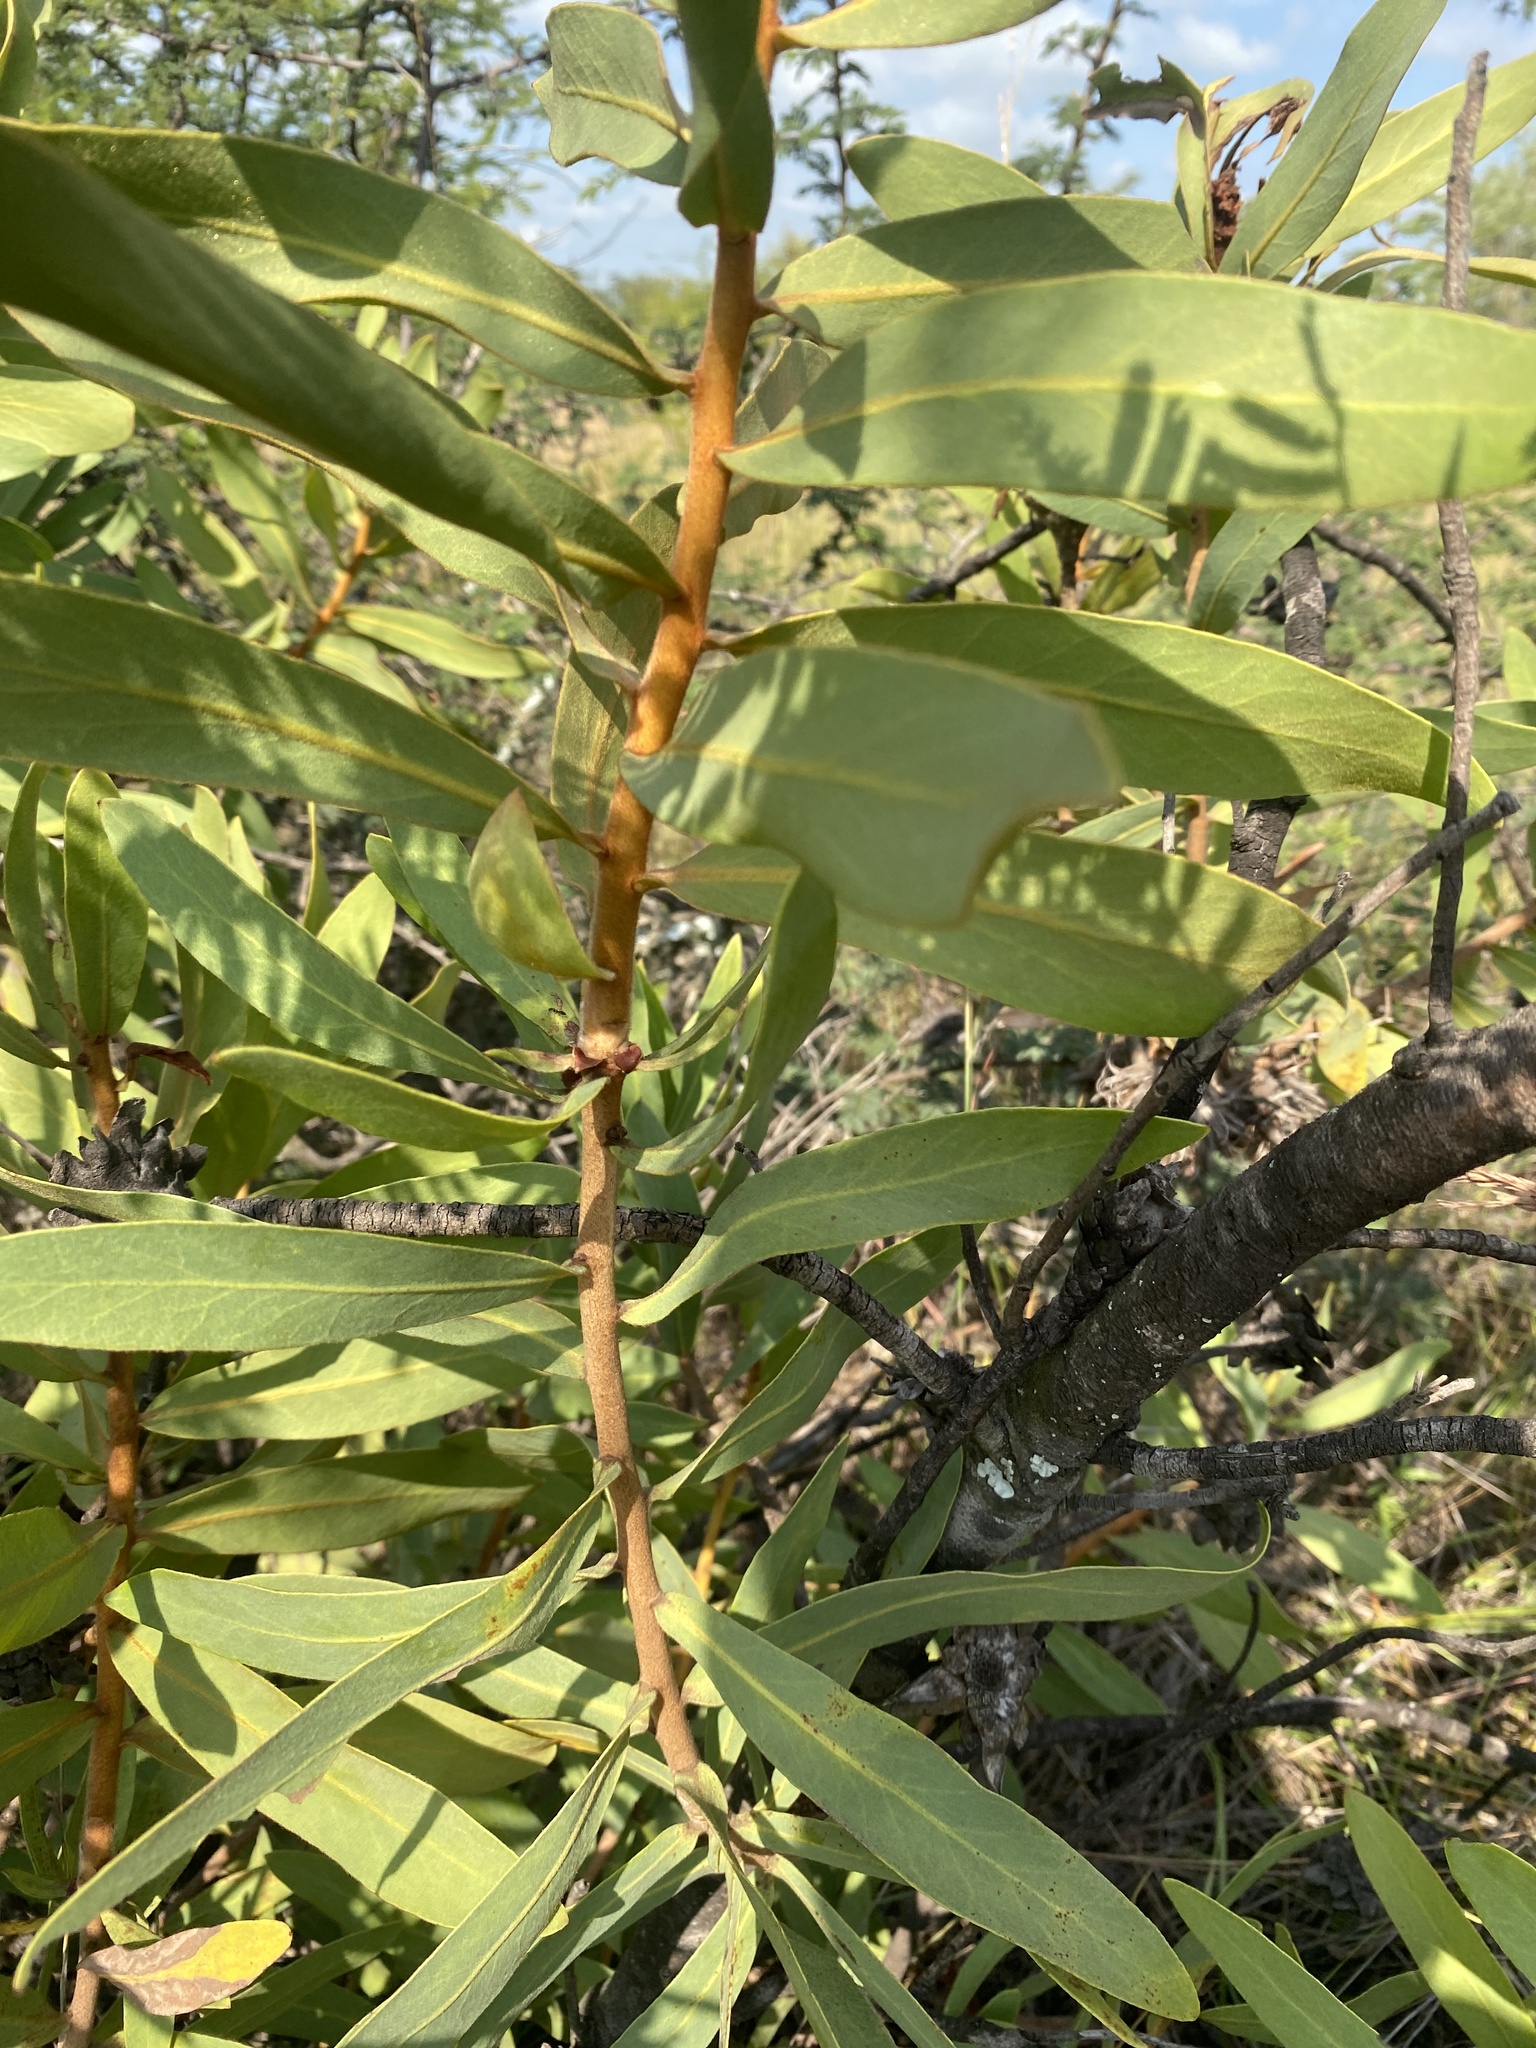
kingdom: Plantae
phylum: Tracheophyta
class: Magnoliopsida
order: Proteales
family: Proteaceae
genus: Protea
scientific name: Protea welwitschii
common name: Cluster-head protea
